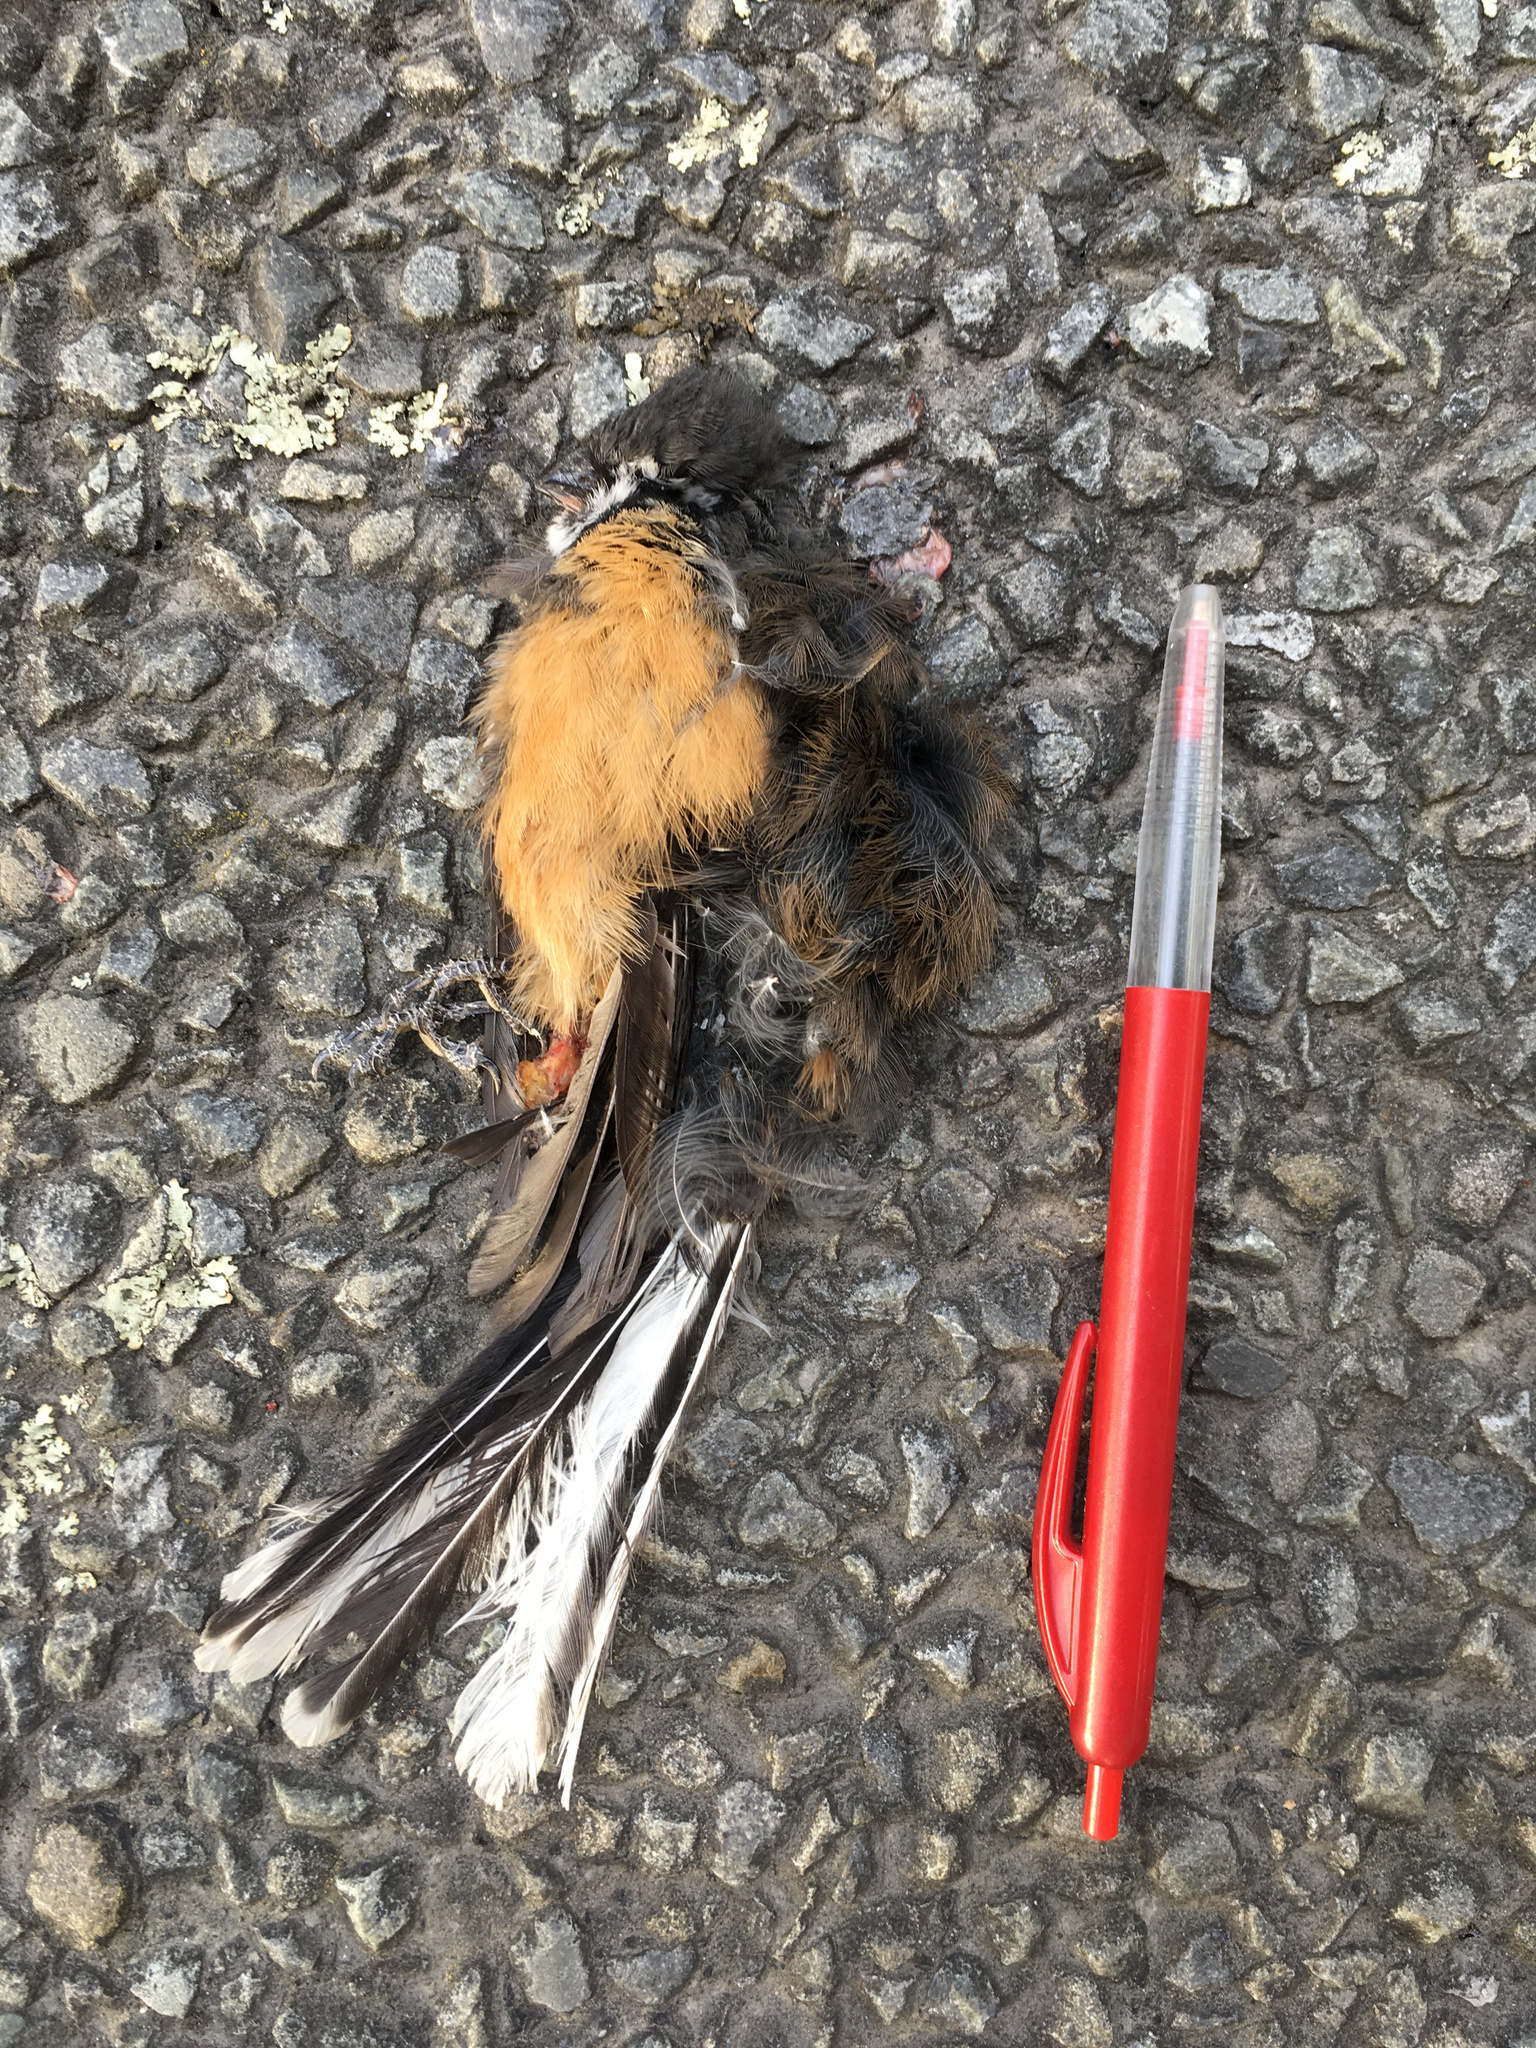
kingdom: Animalia
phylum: Chordata
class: Aves
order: Passeriformes
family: Rhipiduridae
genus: Rhipidura
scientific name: Rhipidura fuliginosa
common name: New zealand fantail
